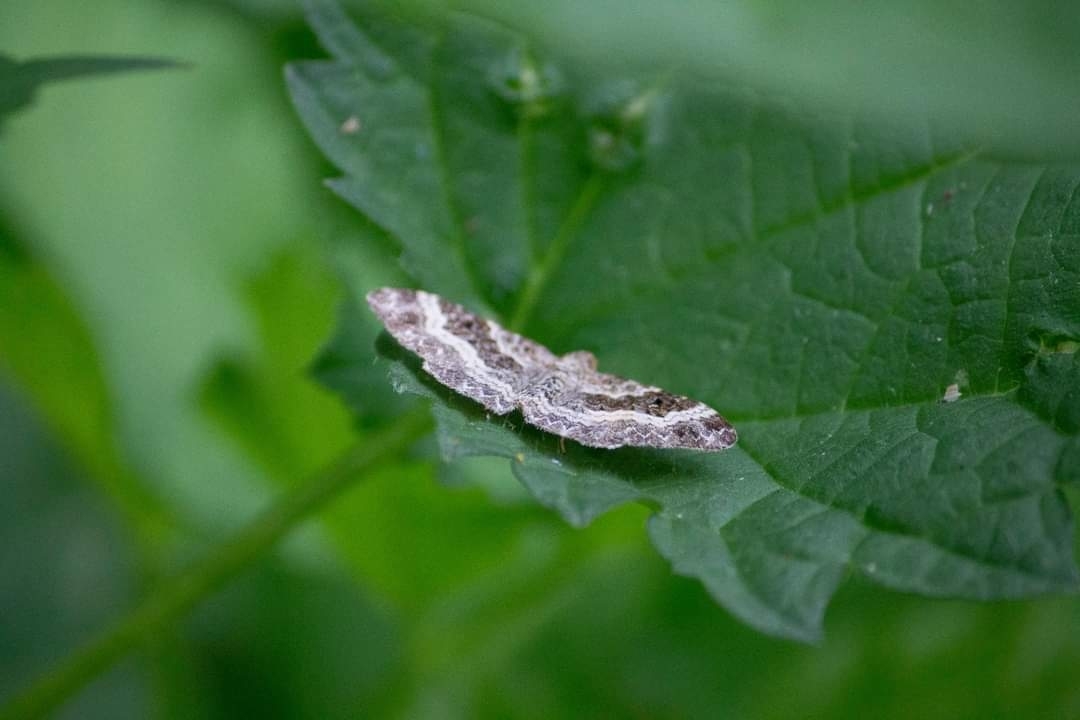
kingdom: Animalia
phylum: Arthropoda
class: Insecta
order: Lepidoptera
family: Geometridae
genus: Epirrhoe
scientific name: Epirrhoe alternata
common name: Common carpet
